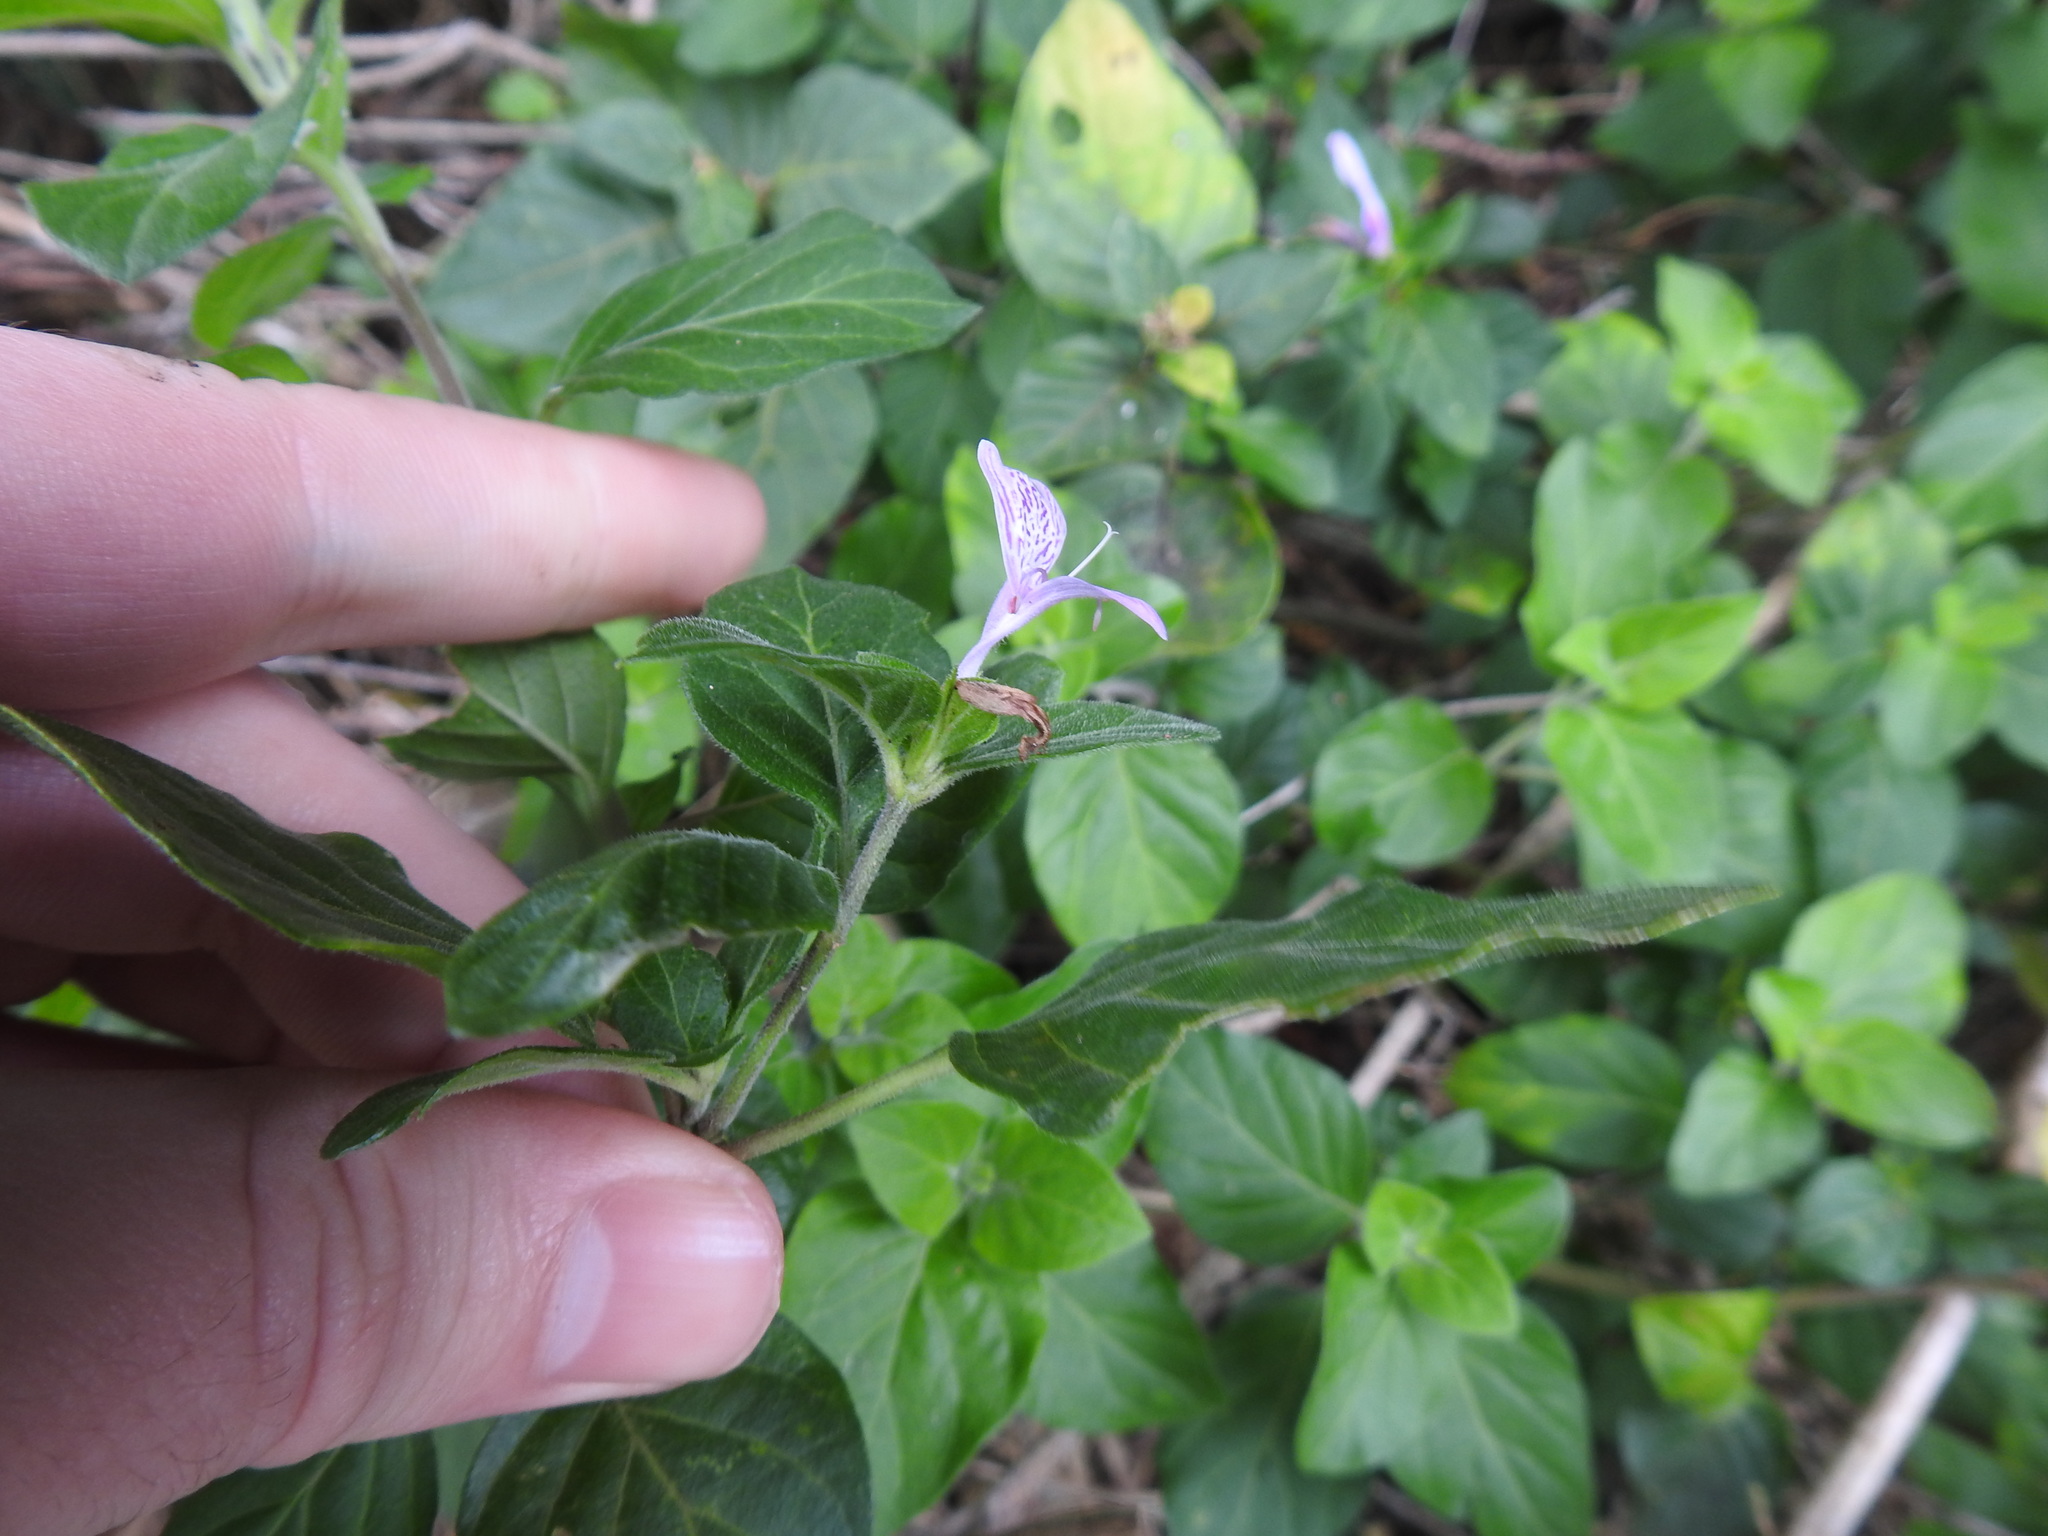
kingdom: Plantae
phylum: Tracheophyta
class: Magnoliopsida
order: Lamiales
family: Acanthaceae
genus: Hypoestes
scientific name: Hypoestes aristata
